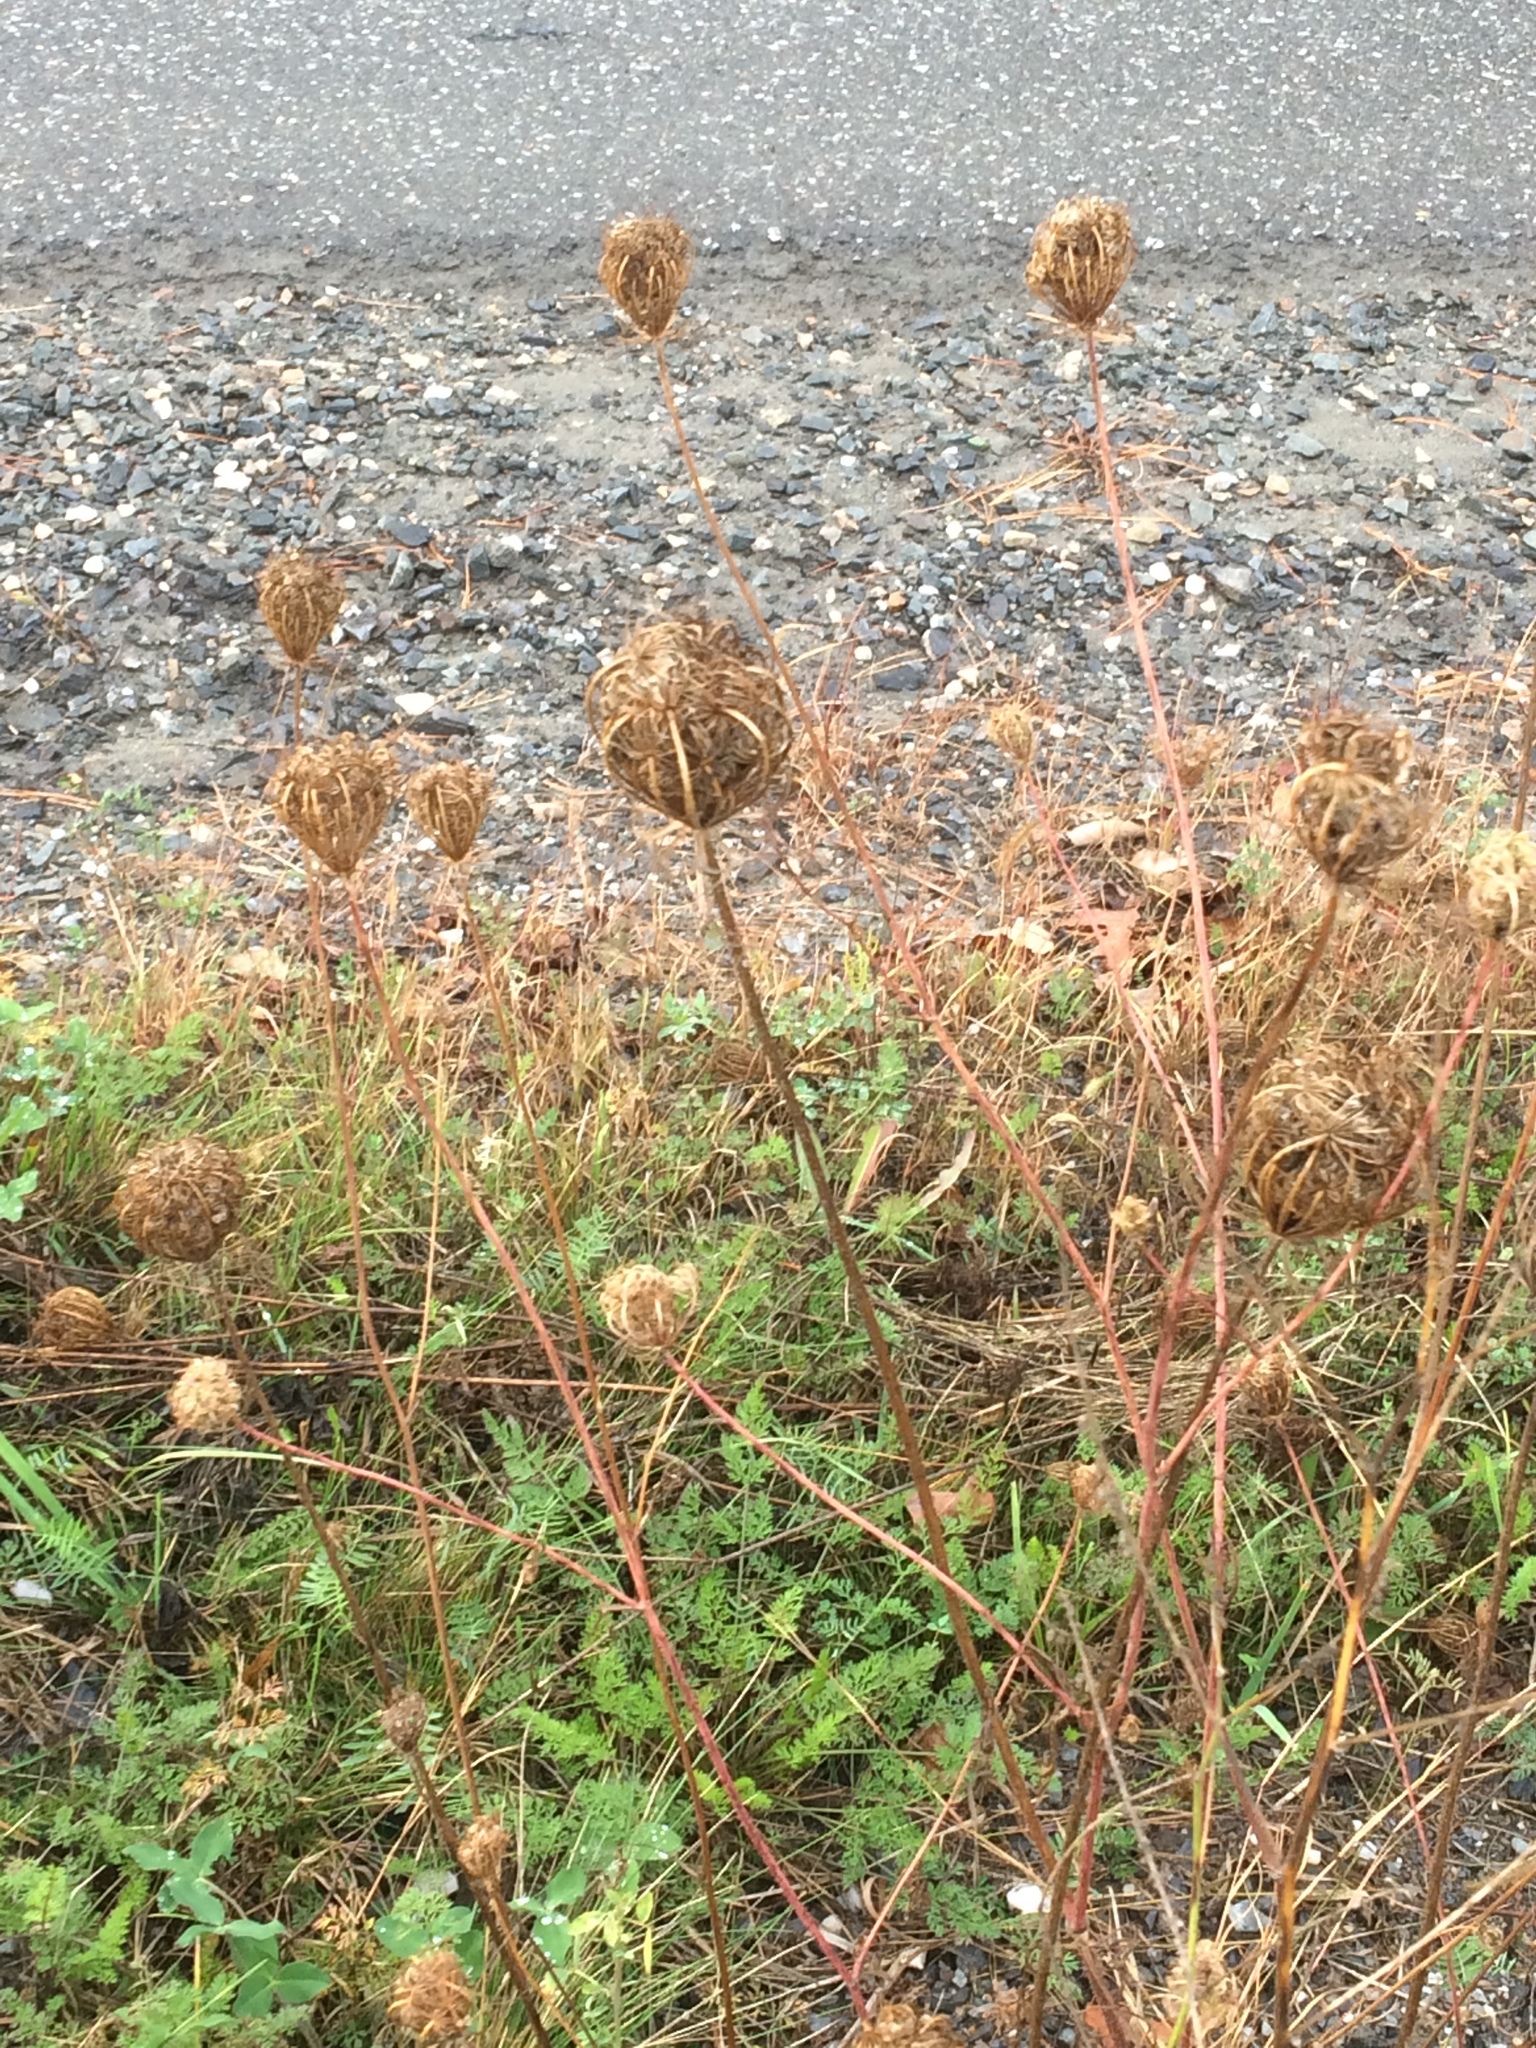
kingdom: Plantae
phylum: Tracheophyta
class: Magnoliopsida
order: Apiales
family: Apiaceae
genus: Daucus
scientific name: Daucus carota
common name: Wild carrot
